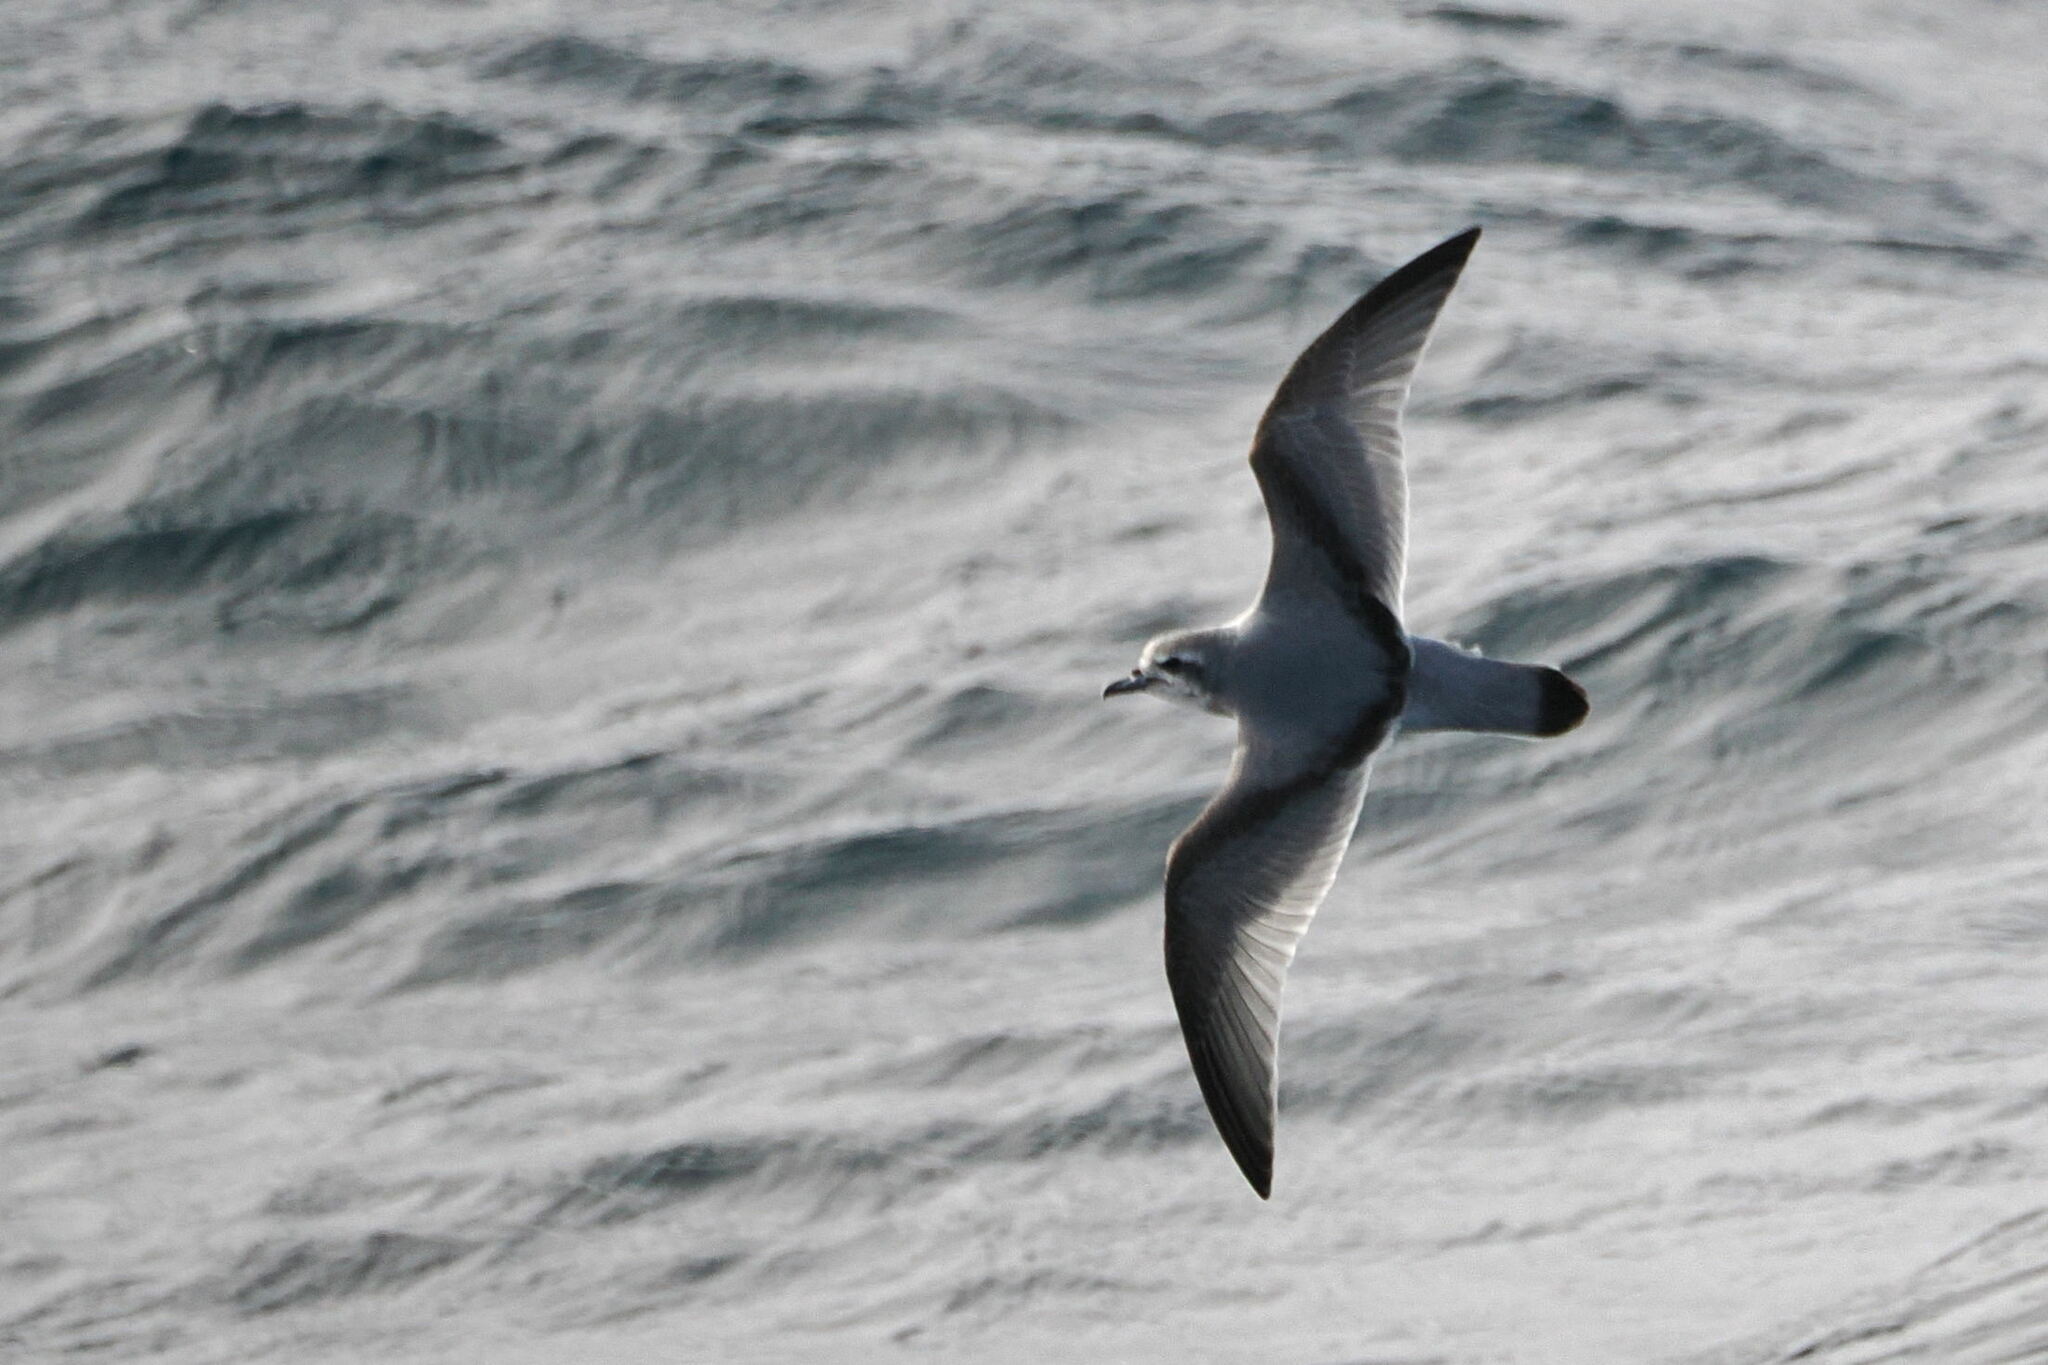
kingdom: Animalia
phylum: Chordata
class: Aves
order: Procellariiformes
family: Procellariidae
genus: Pachyptila
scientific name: Pachyptila belcheri
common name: Slender-billed prion
